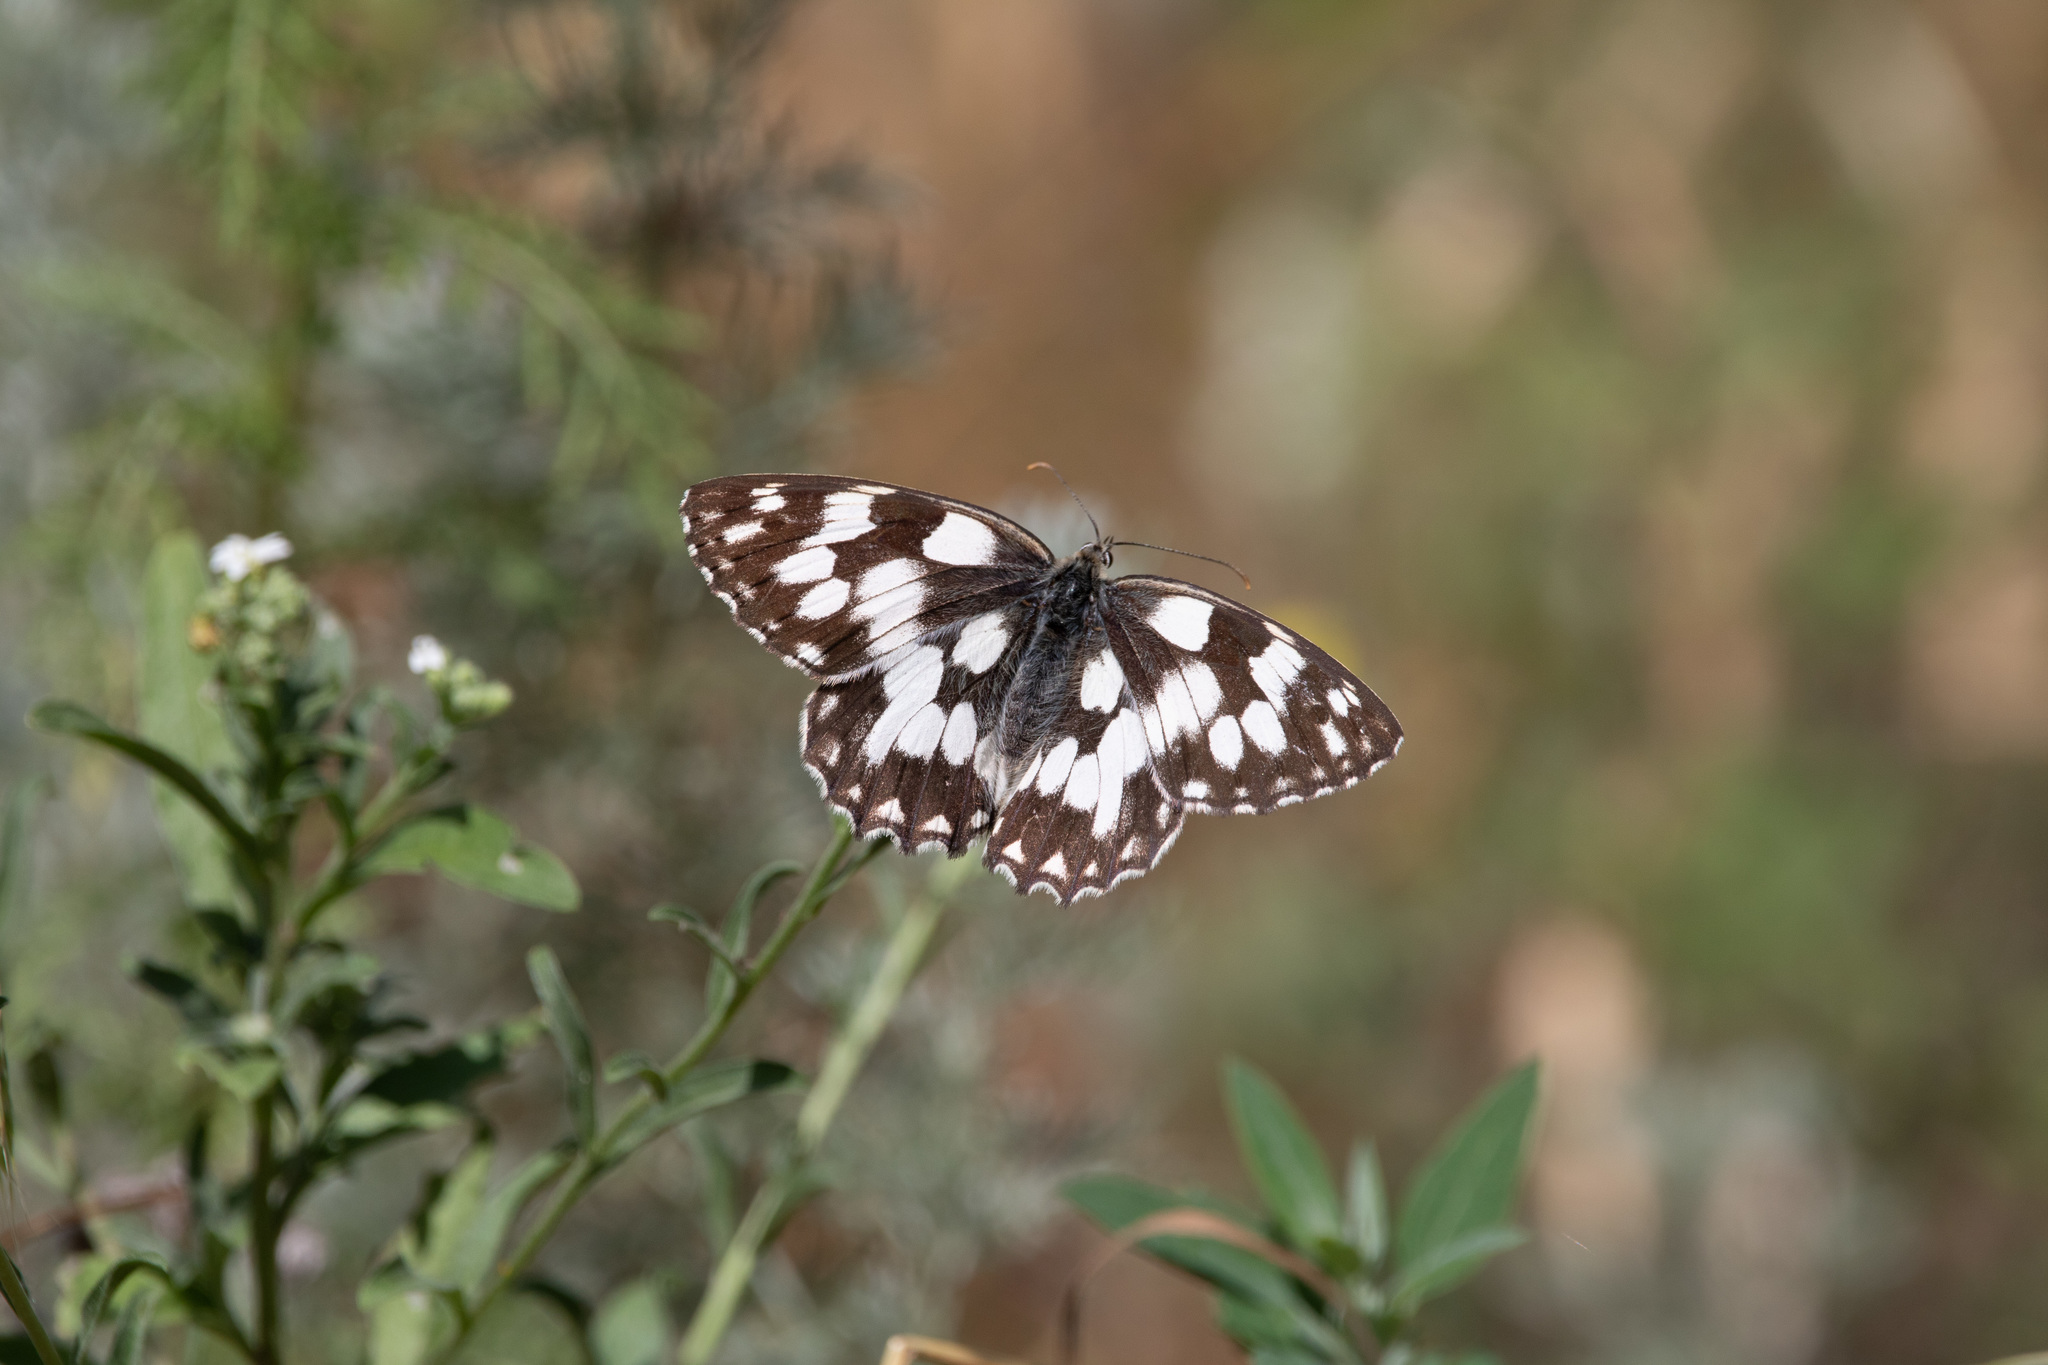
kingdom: Animalia
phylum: Arthropoda
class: Insecta
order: Lepidoptera
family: Nymphalidae
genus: Melanargia
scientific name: Melanargia galathea
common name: Marbled white
